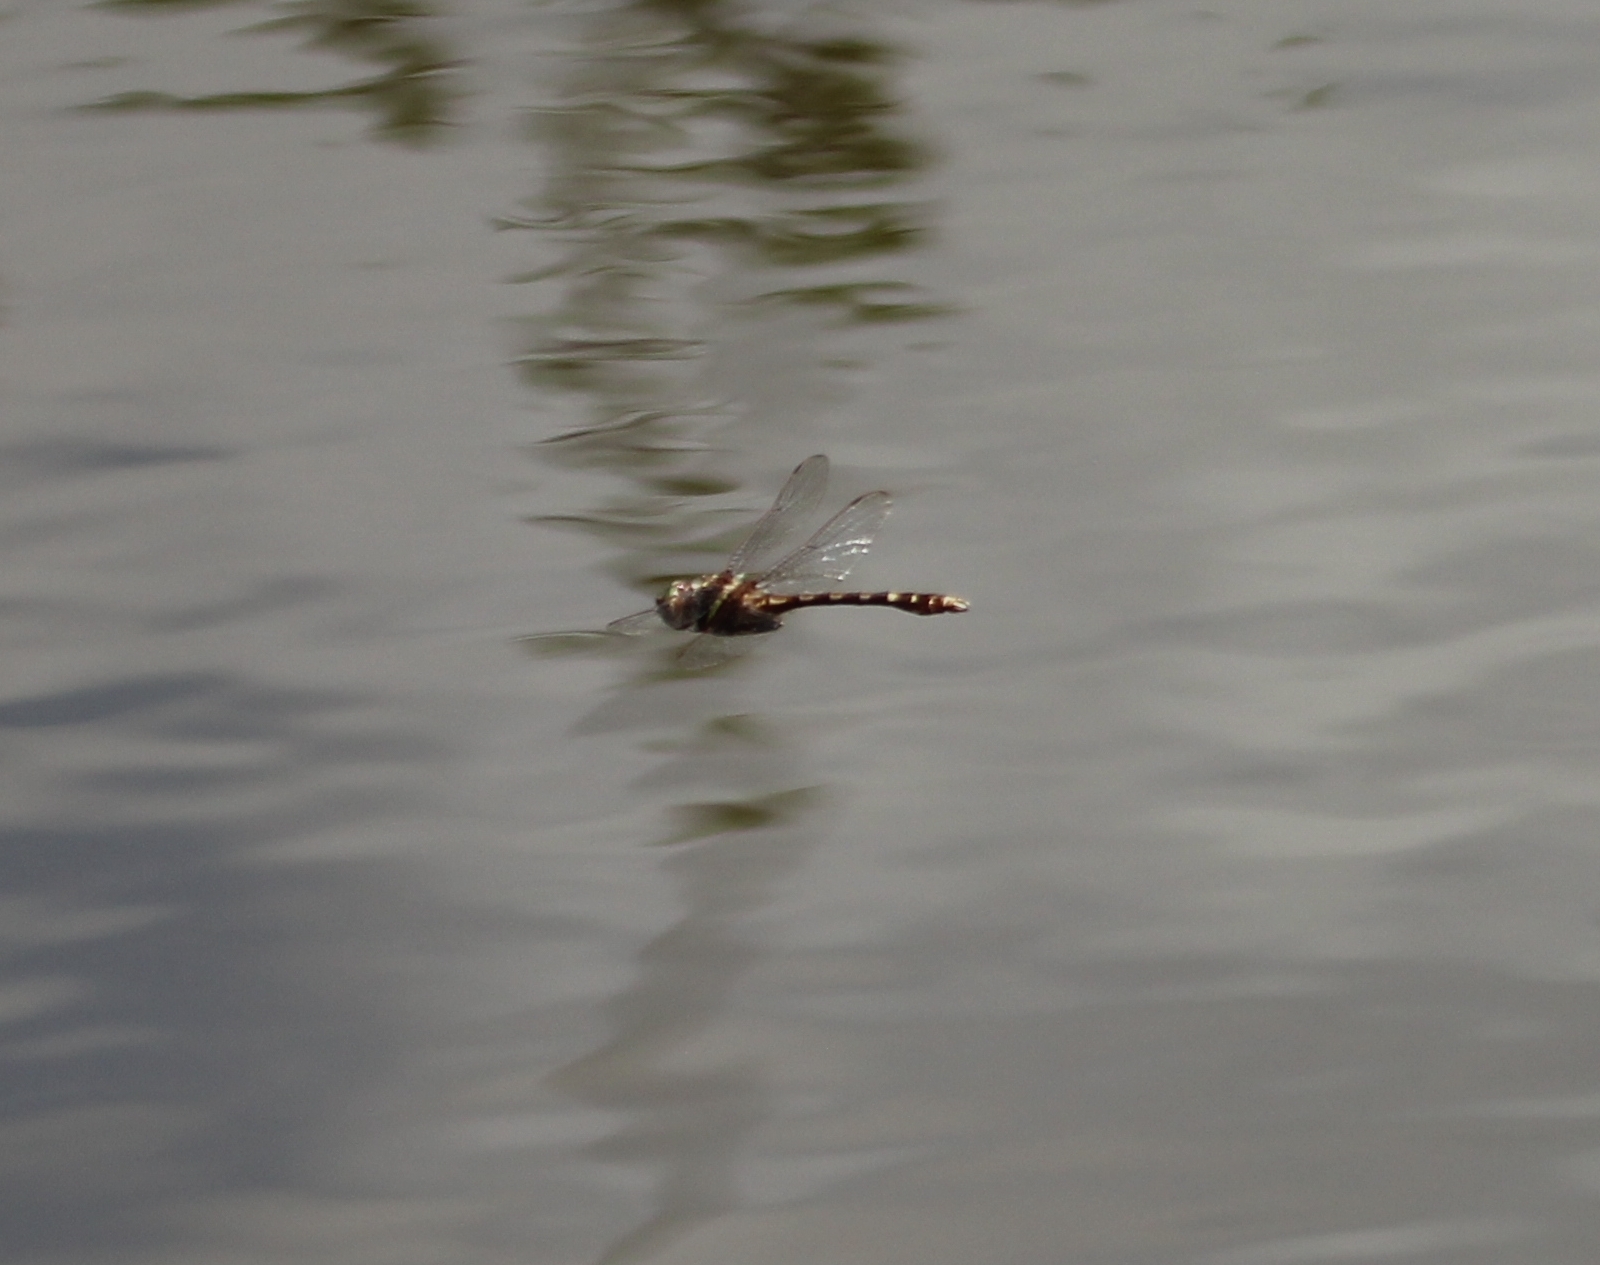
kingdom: Animalia
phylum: Arthropoda
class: Insecta
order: Odonata
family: Macromiidae
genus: Didymops
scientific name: Didymops transversa
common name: Stream cruiser
